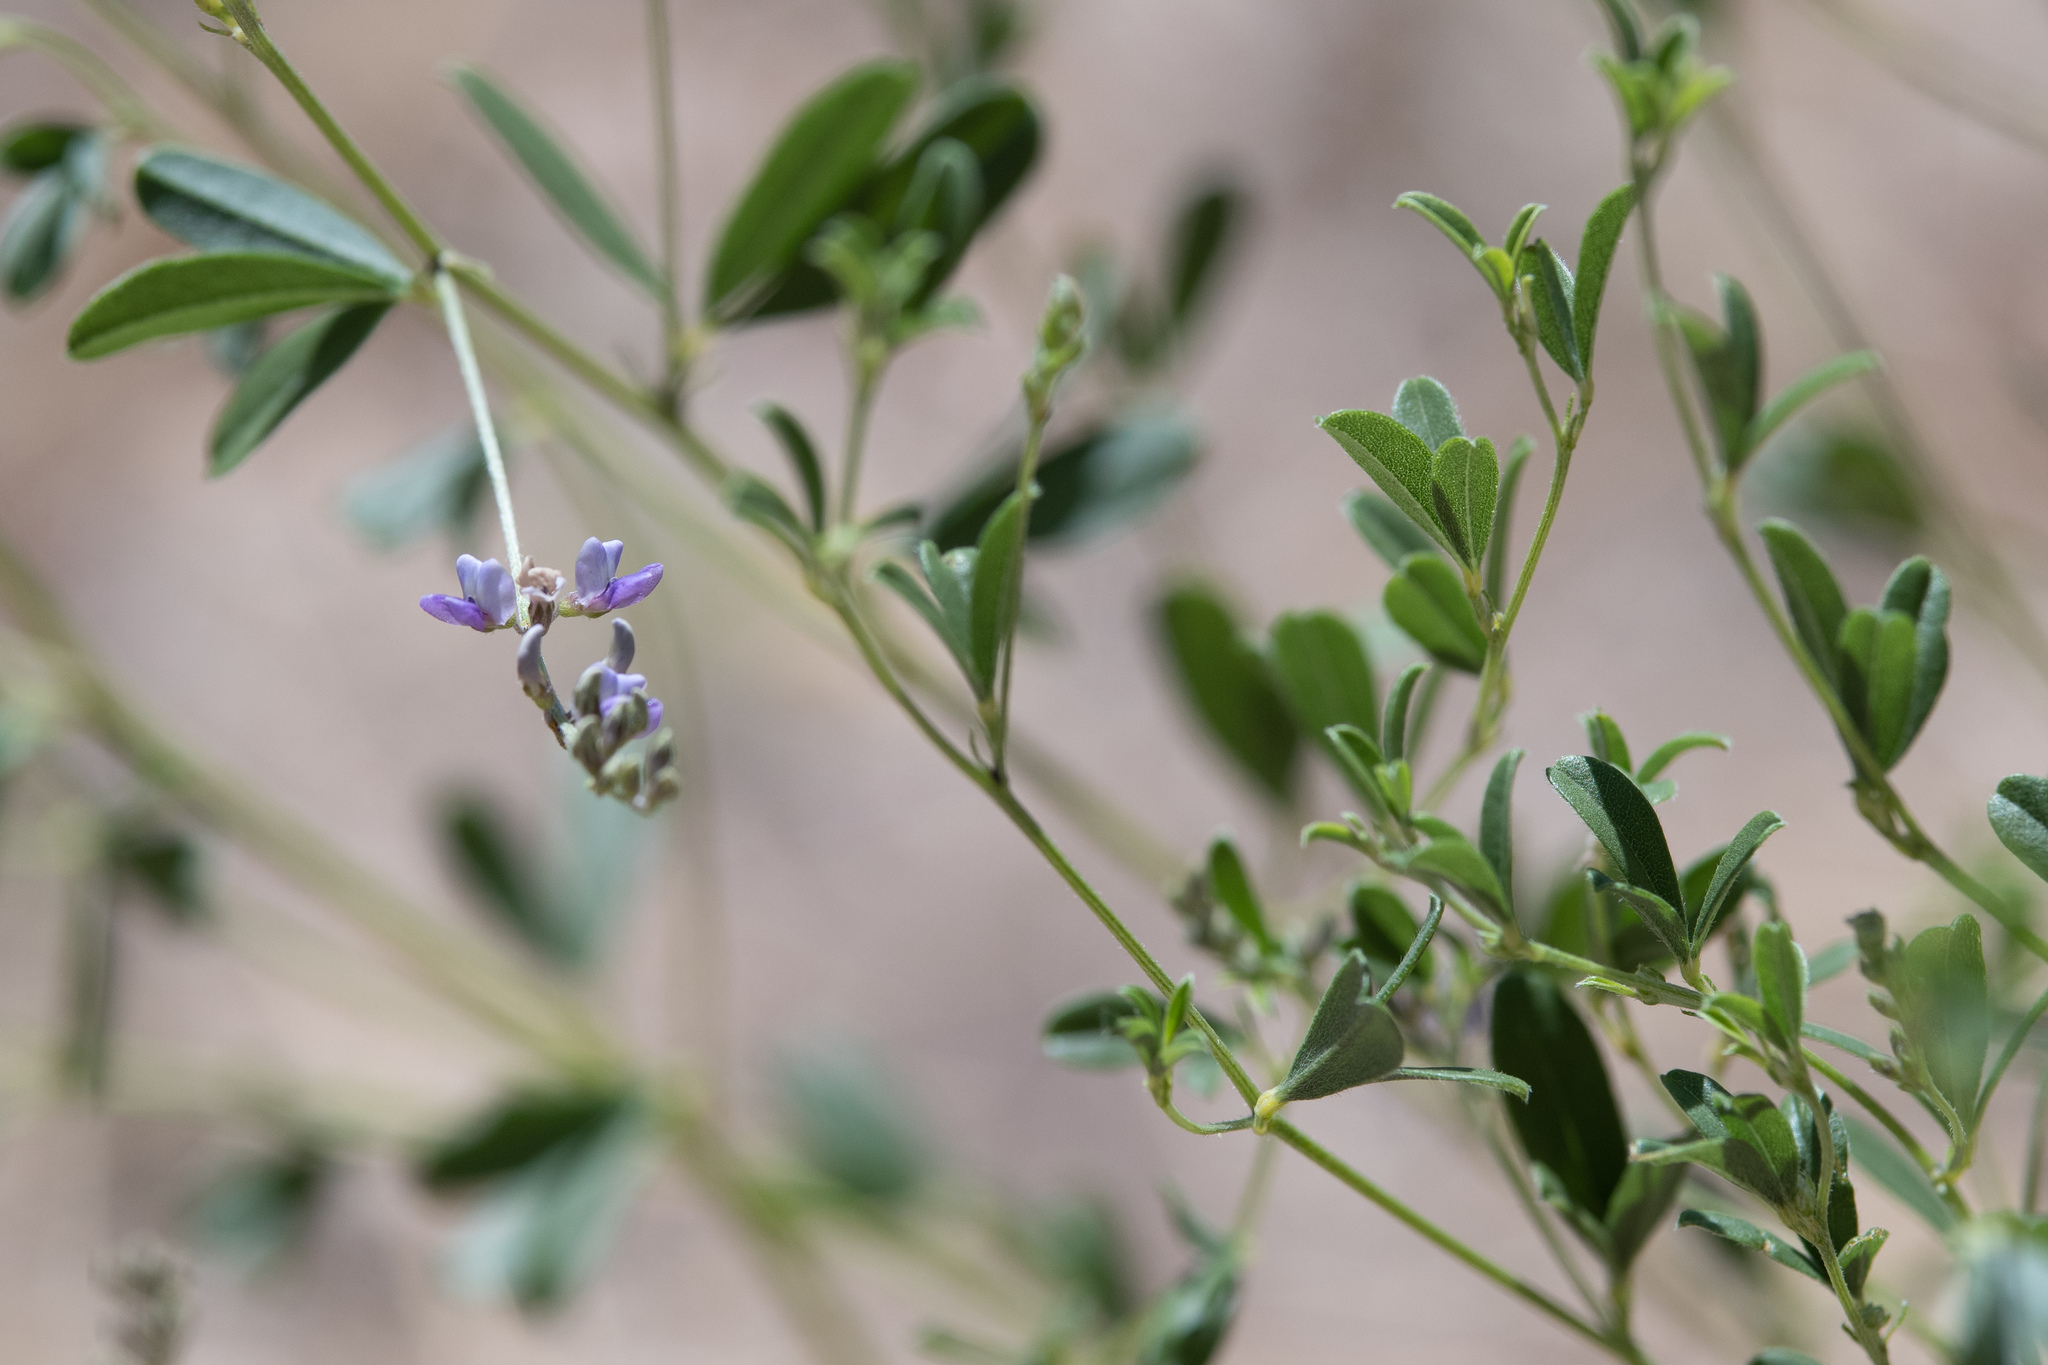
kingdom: Plantae
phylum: Tracheophyta
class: Magnoliopsida
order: Fabales
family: Fabaceae
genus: Pediomelum
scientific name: Pediomelum tenuiflorum
